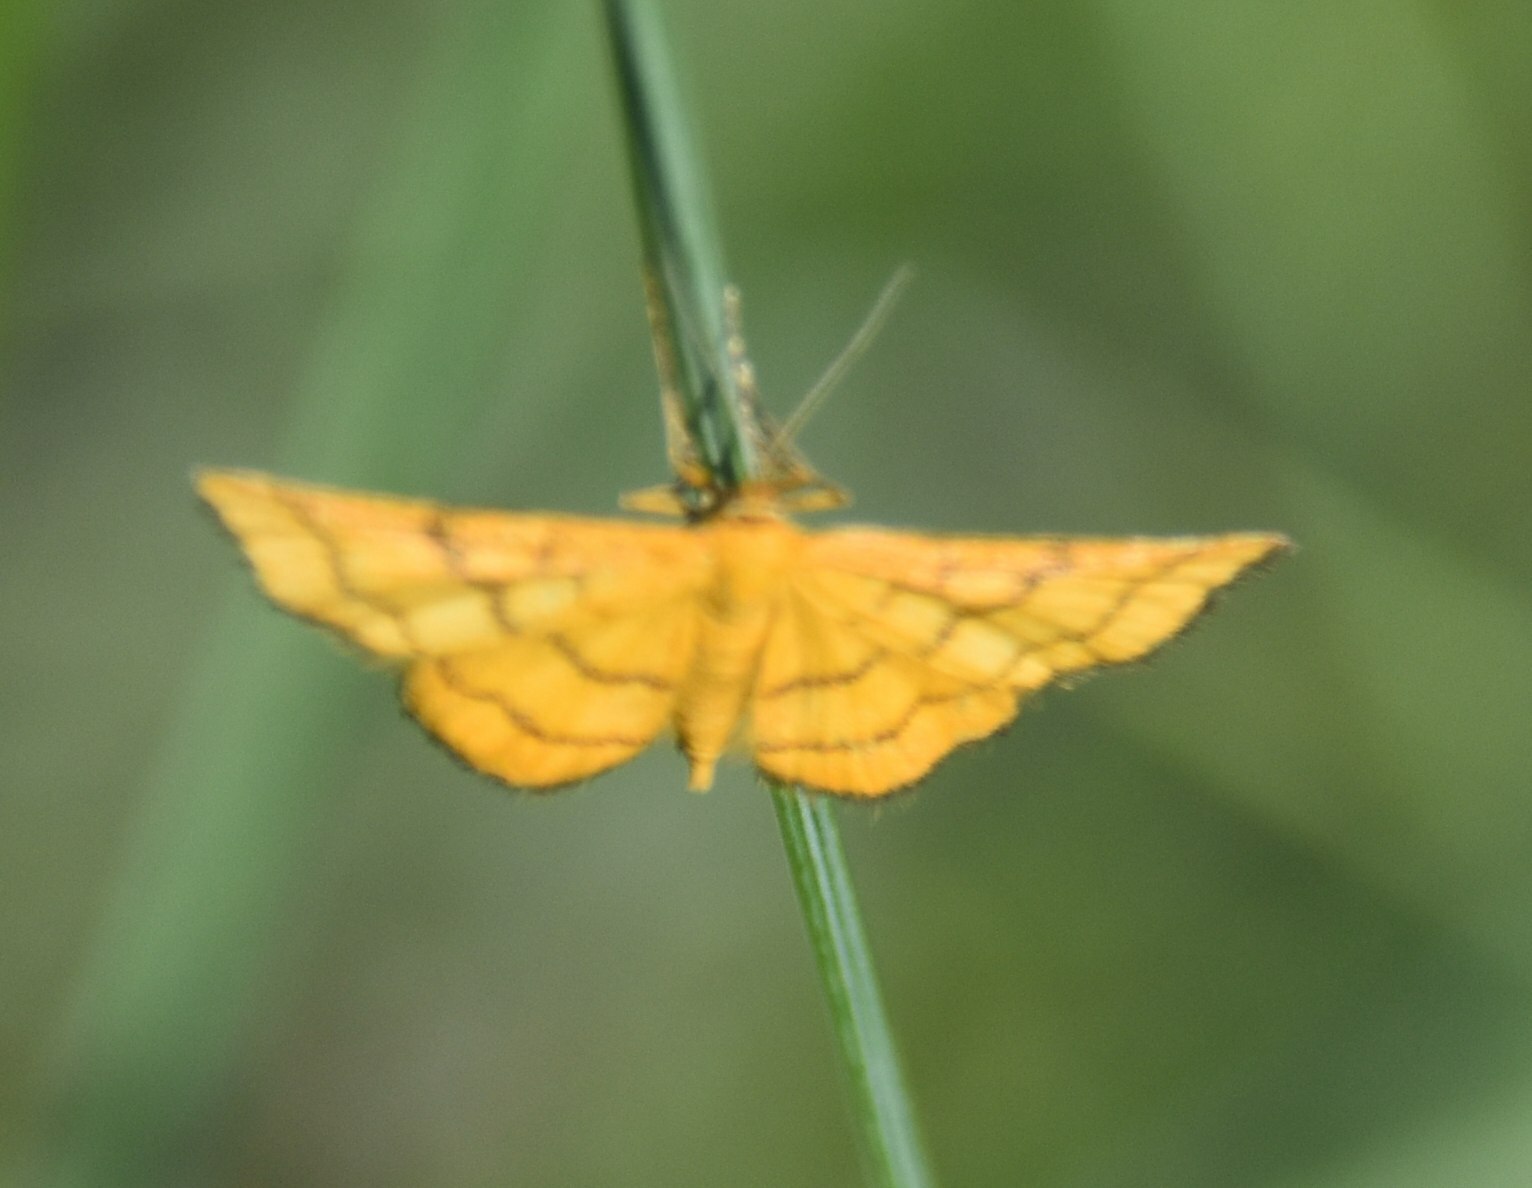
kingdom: Animalia
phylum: Arthropoda
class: Insecta
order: Lepidoptera
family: Geometridae
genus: Idaea
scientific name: Idaea aureolaria
